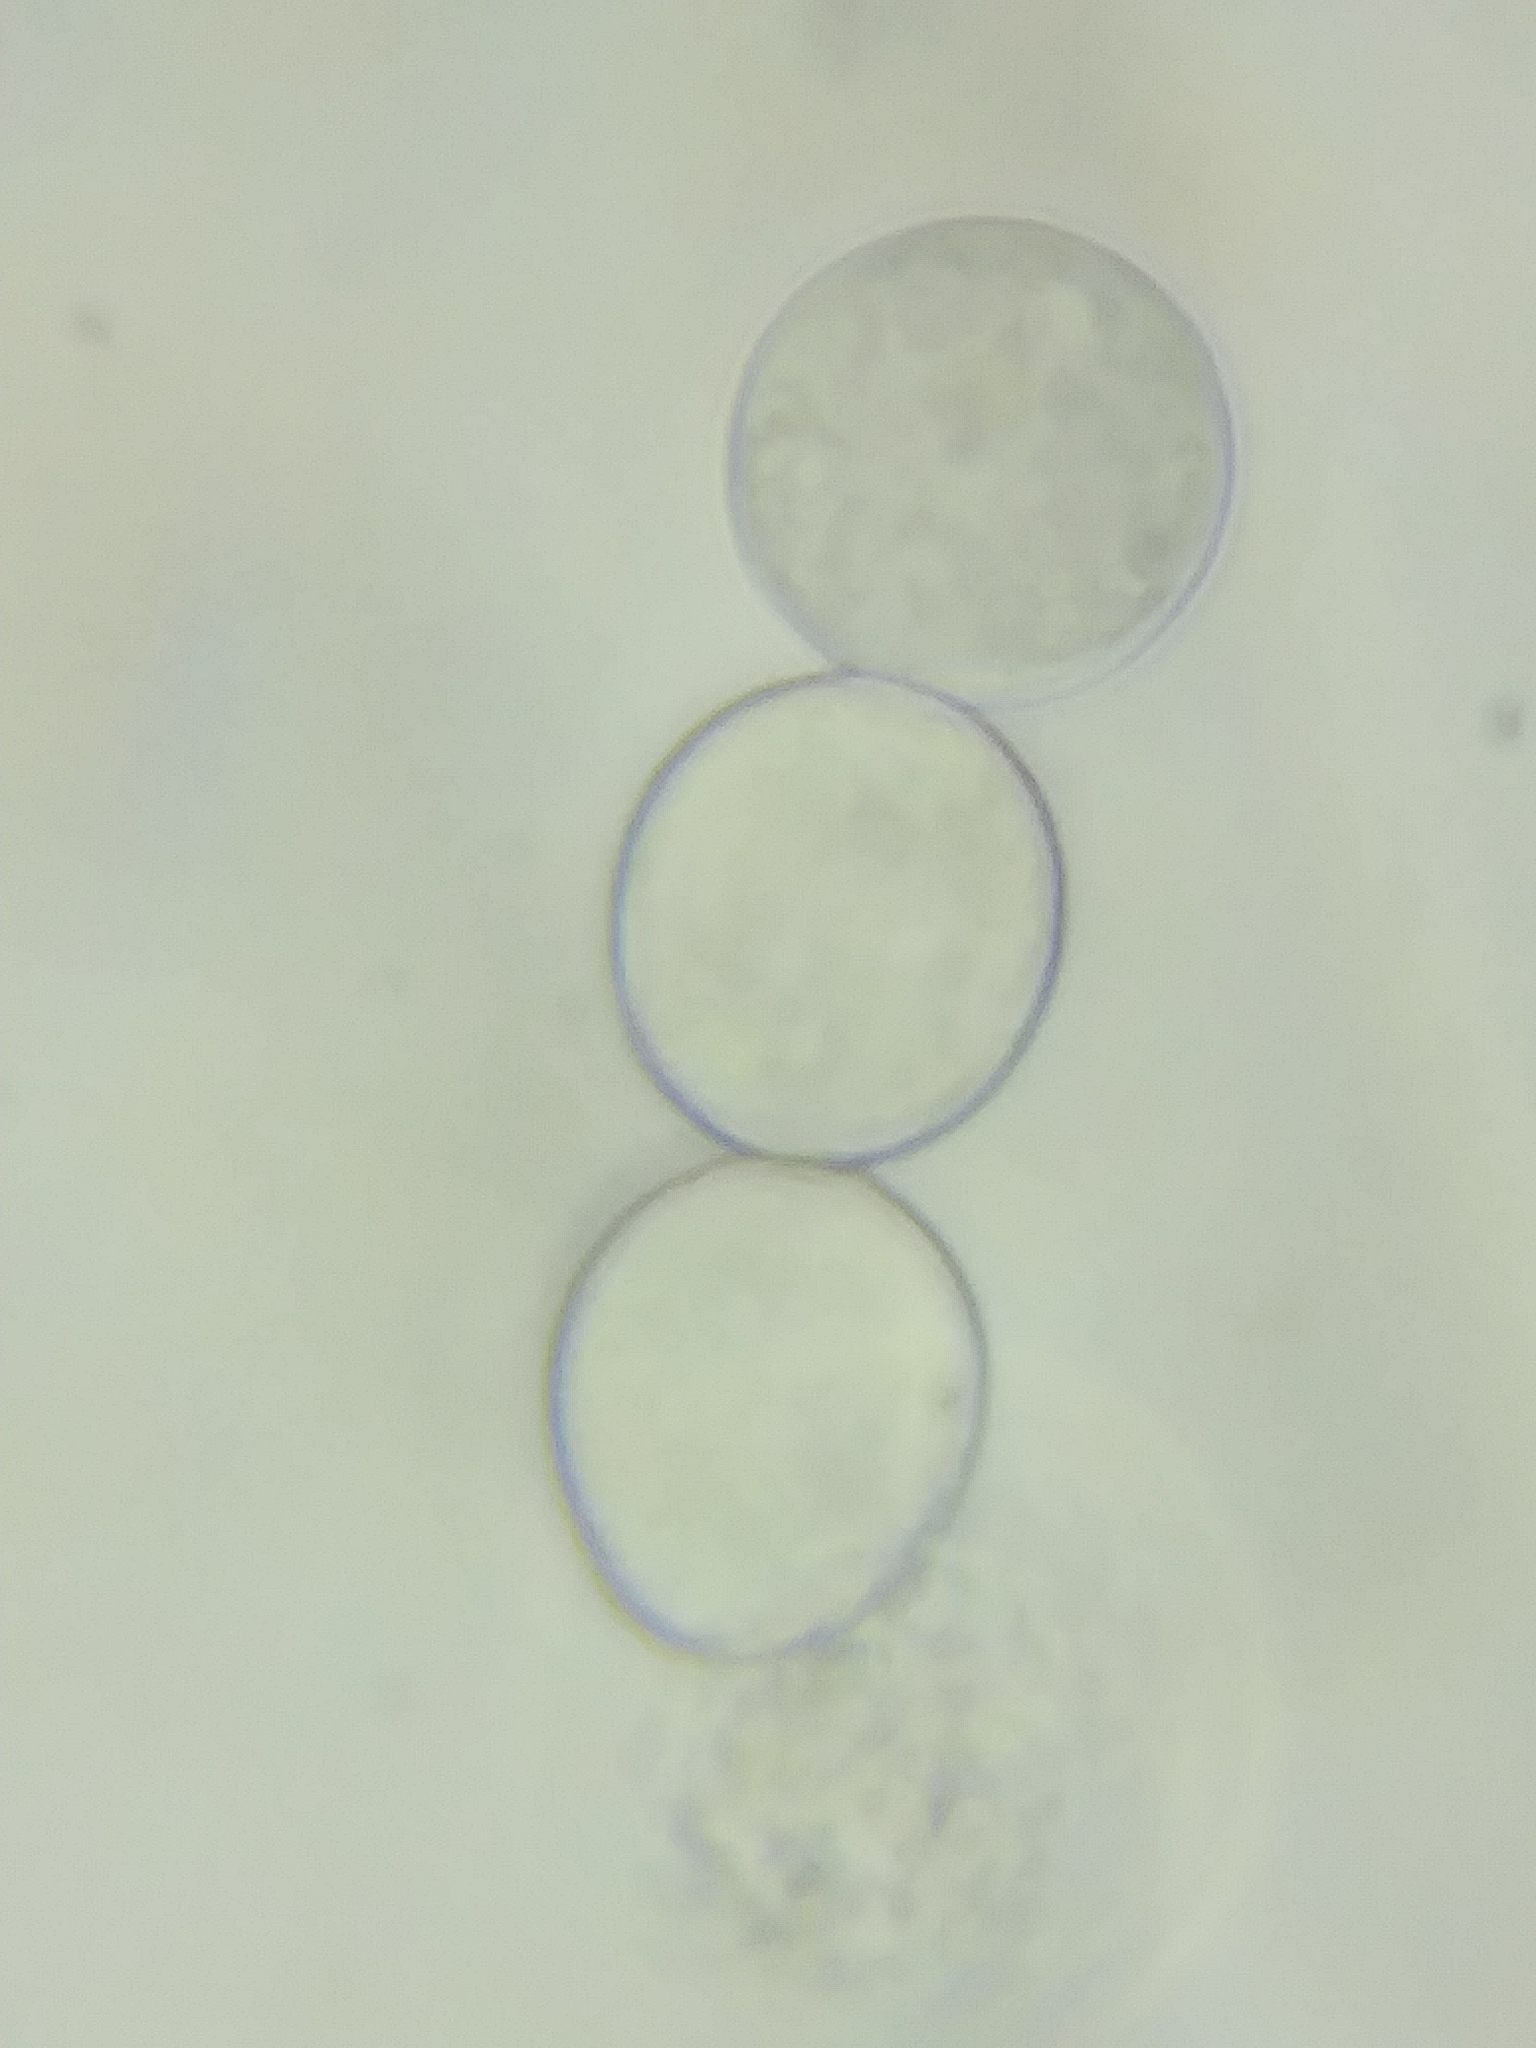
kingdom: Chromista
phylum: Oomycota
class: Peronosporea
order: Albuginales
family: Albuginaceae
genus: Albugo
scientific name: Albugo candida
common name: Crucifer white blister
